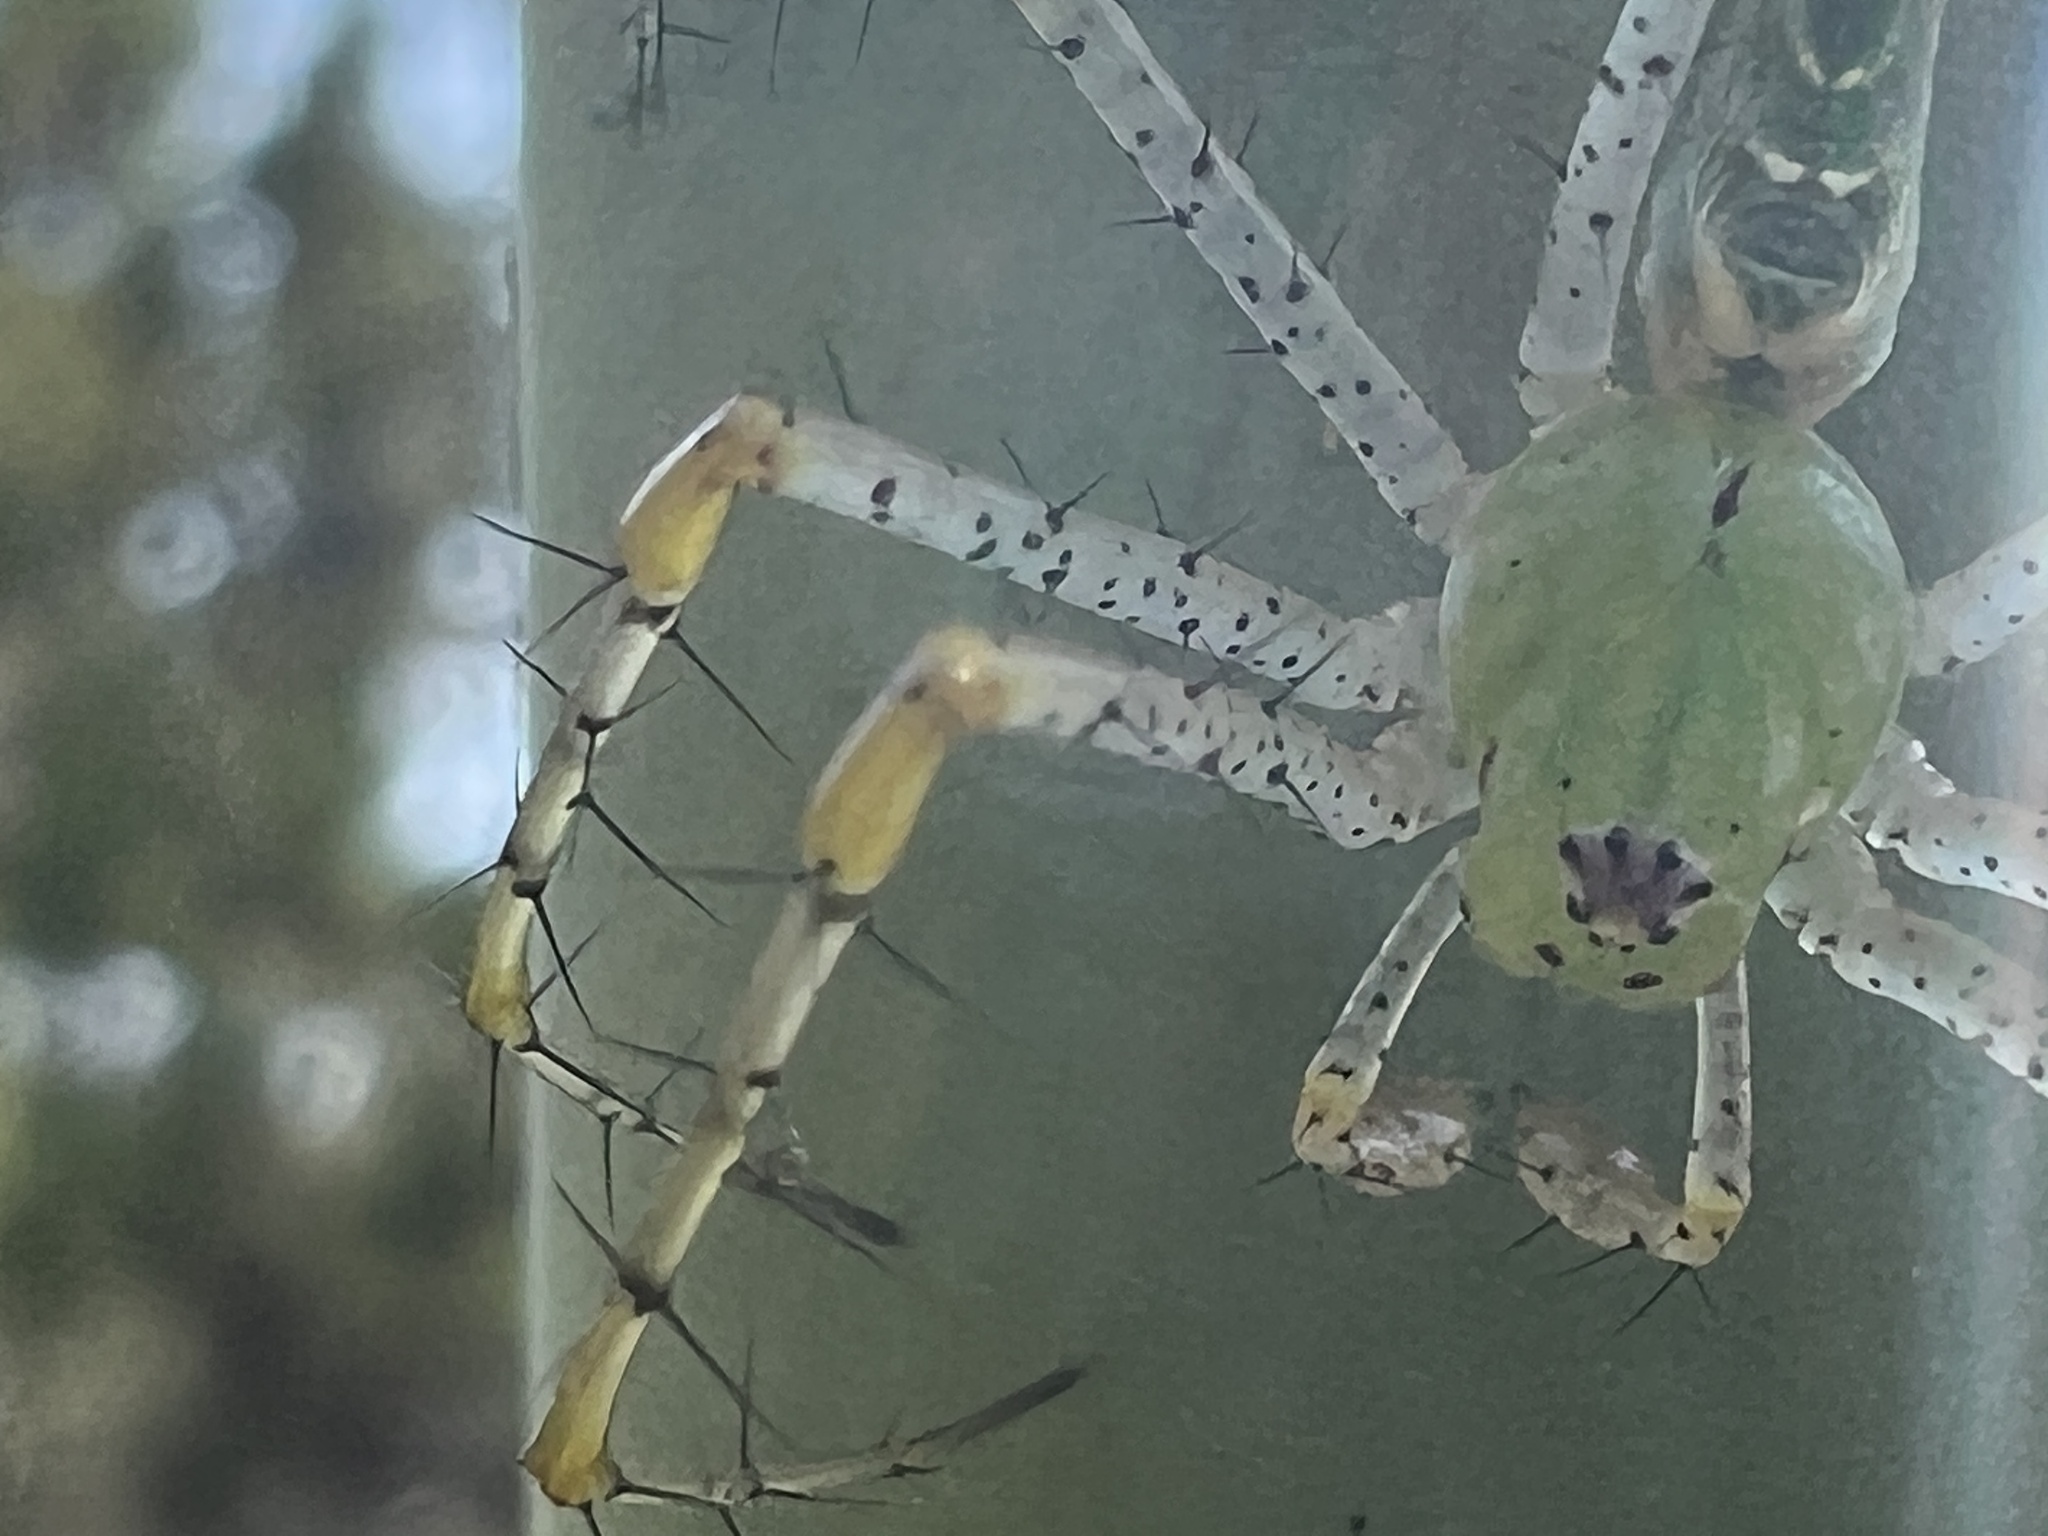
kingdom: Animalia
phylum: Arthropoda
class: Arachnida
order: Araneae
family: Oxyopidae
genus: Peucetia
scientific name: Peucetia viridans
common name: Lynx spiders
